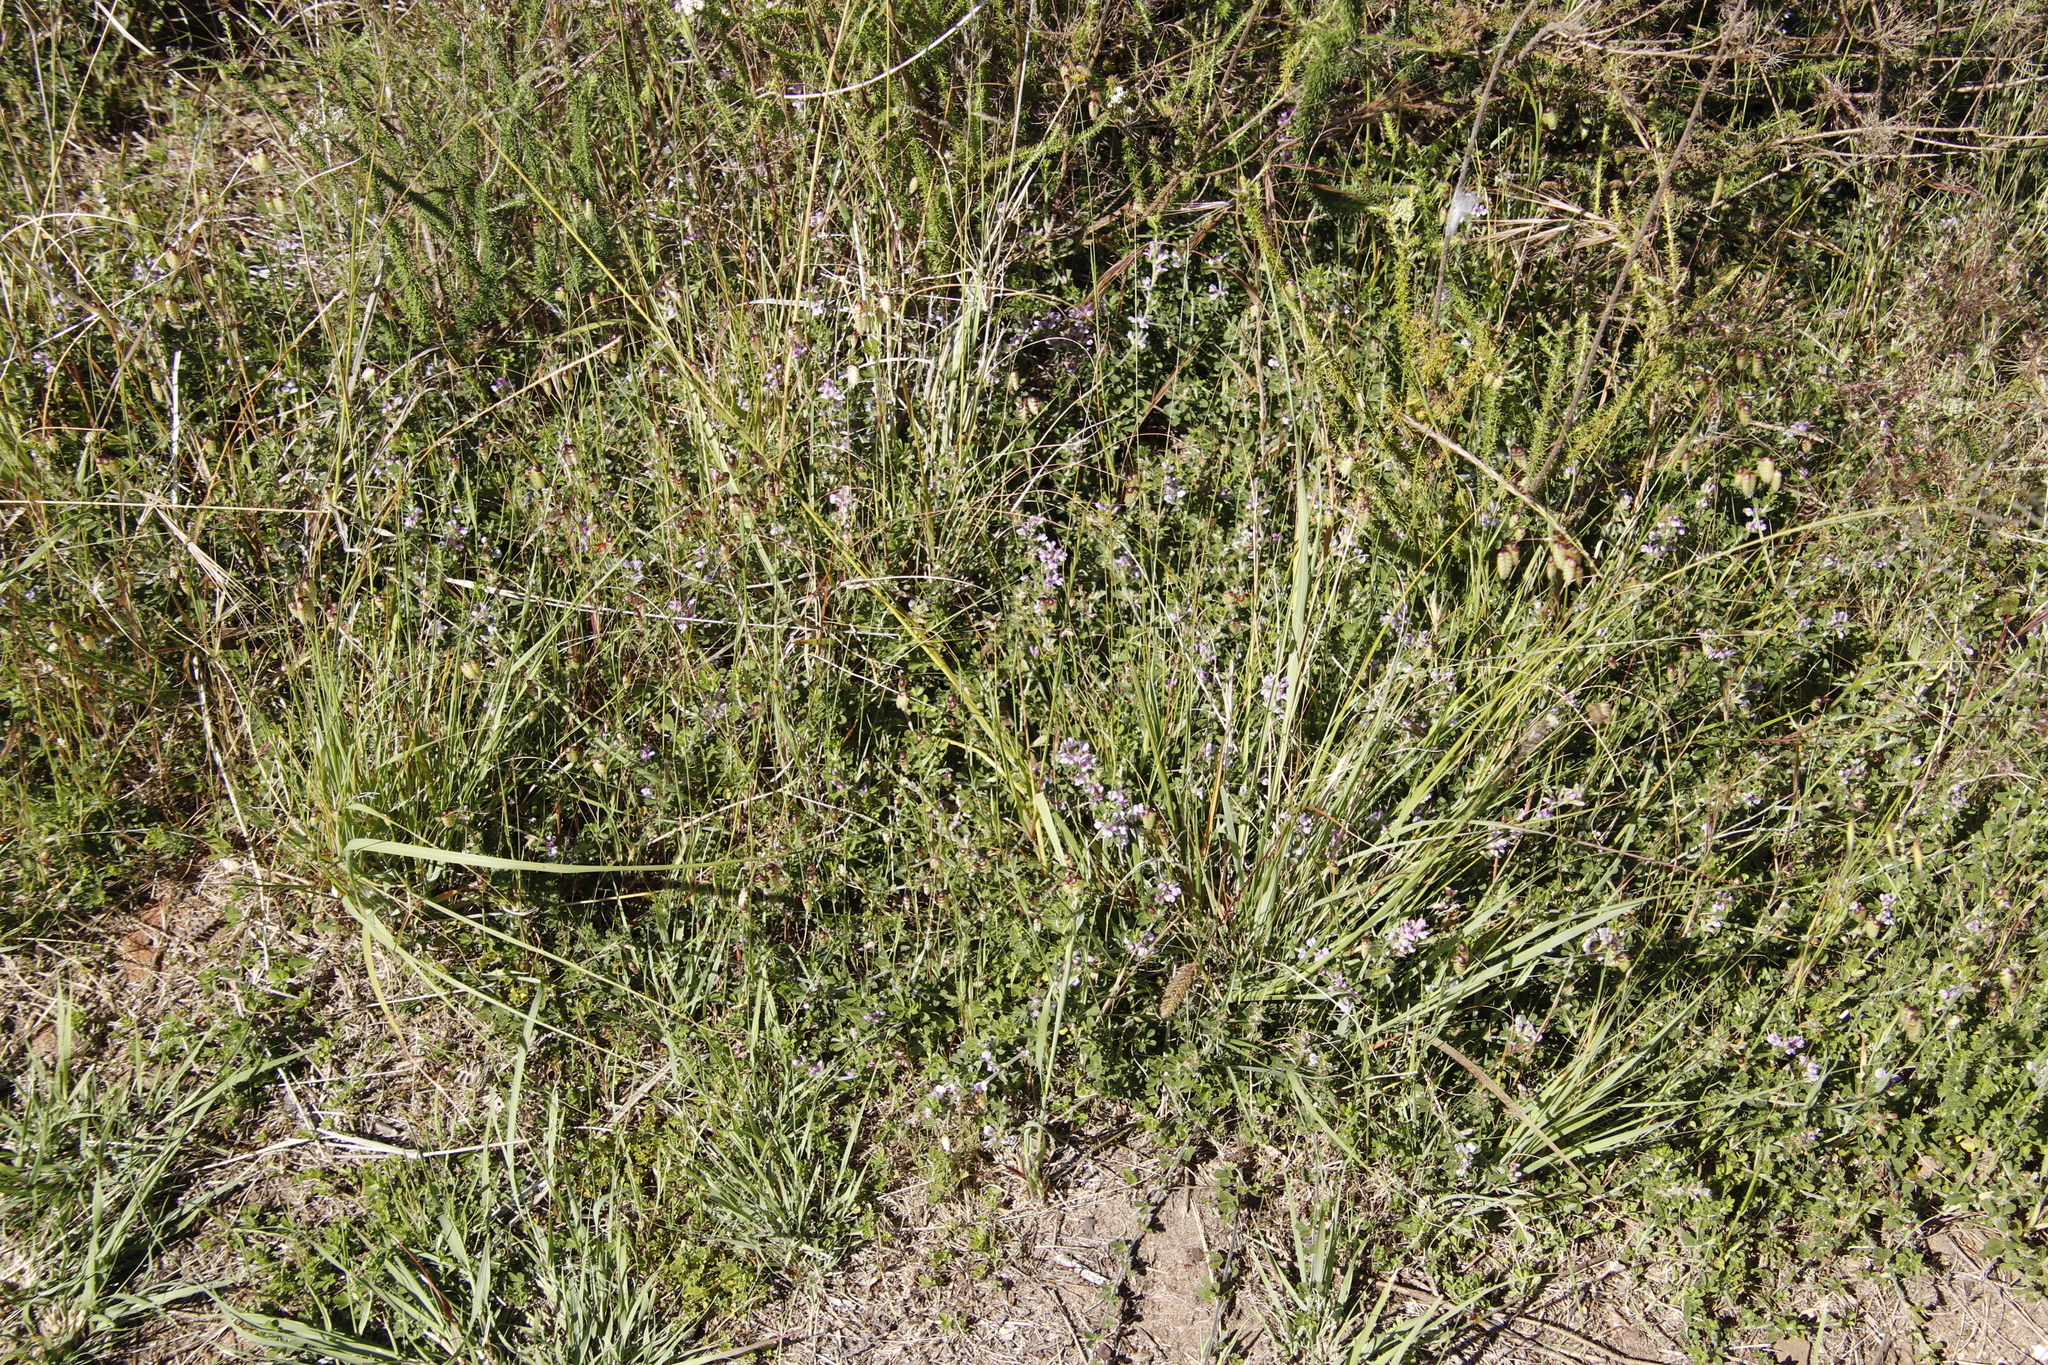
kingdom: Plantae
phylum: Tracheophyta
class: Magnoliopsida
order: Fabales
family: Fabaceae
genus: Psoralea
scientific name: Psoralea
